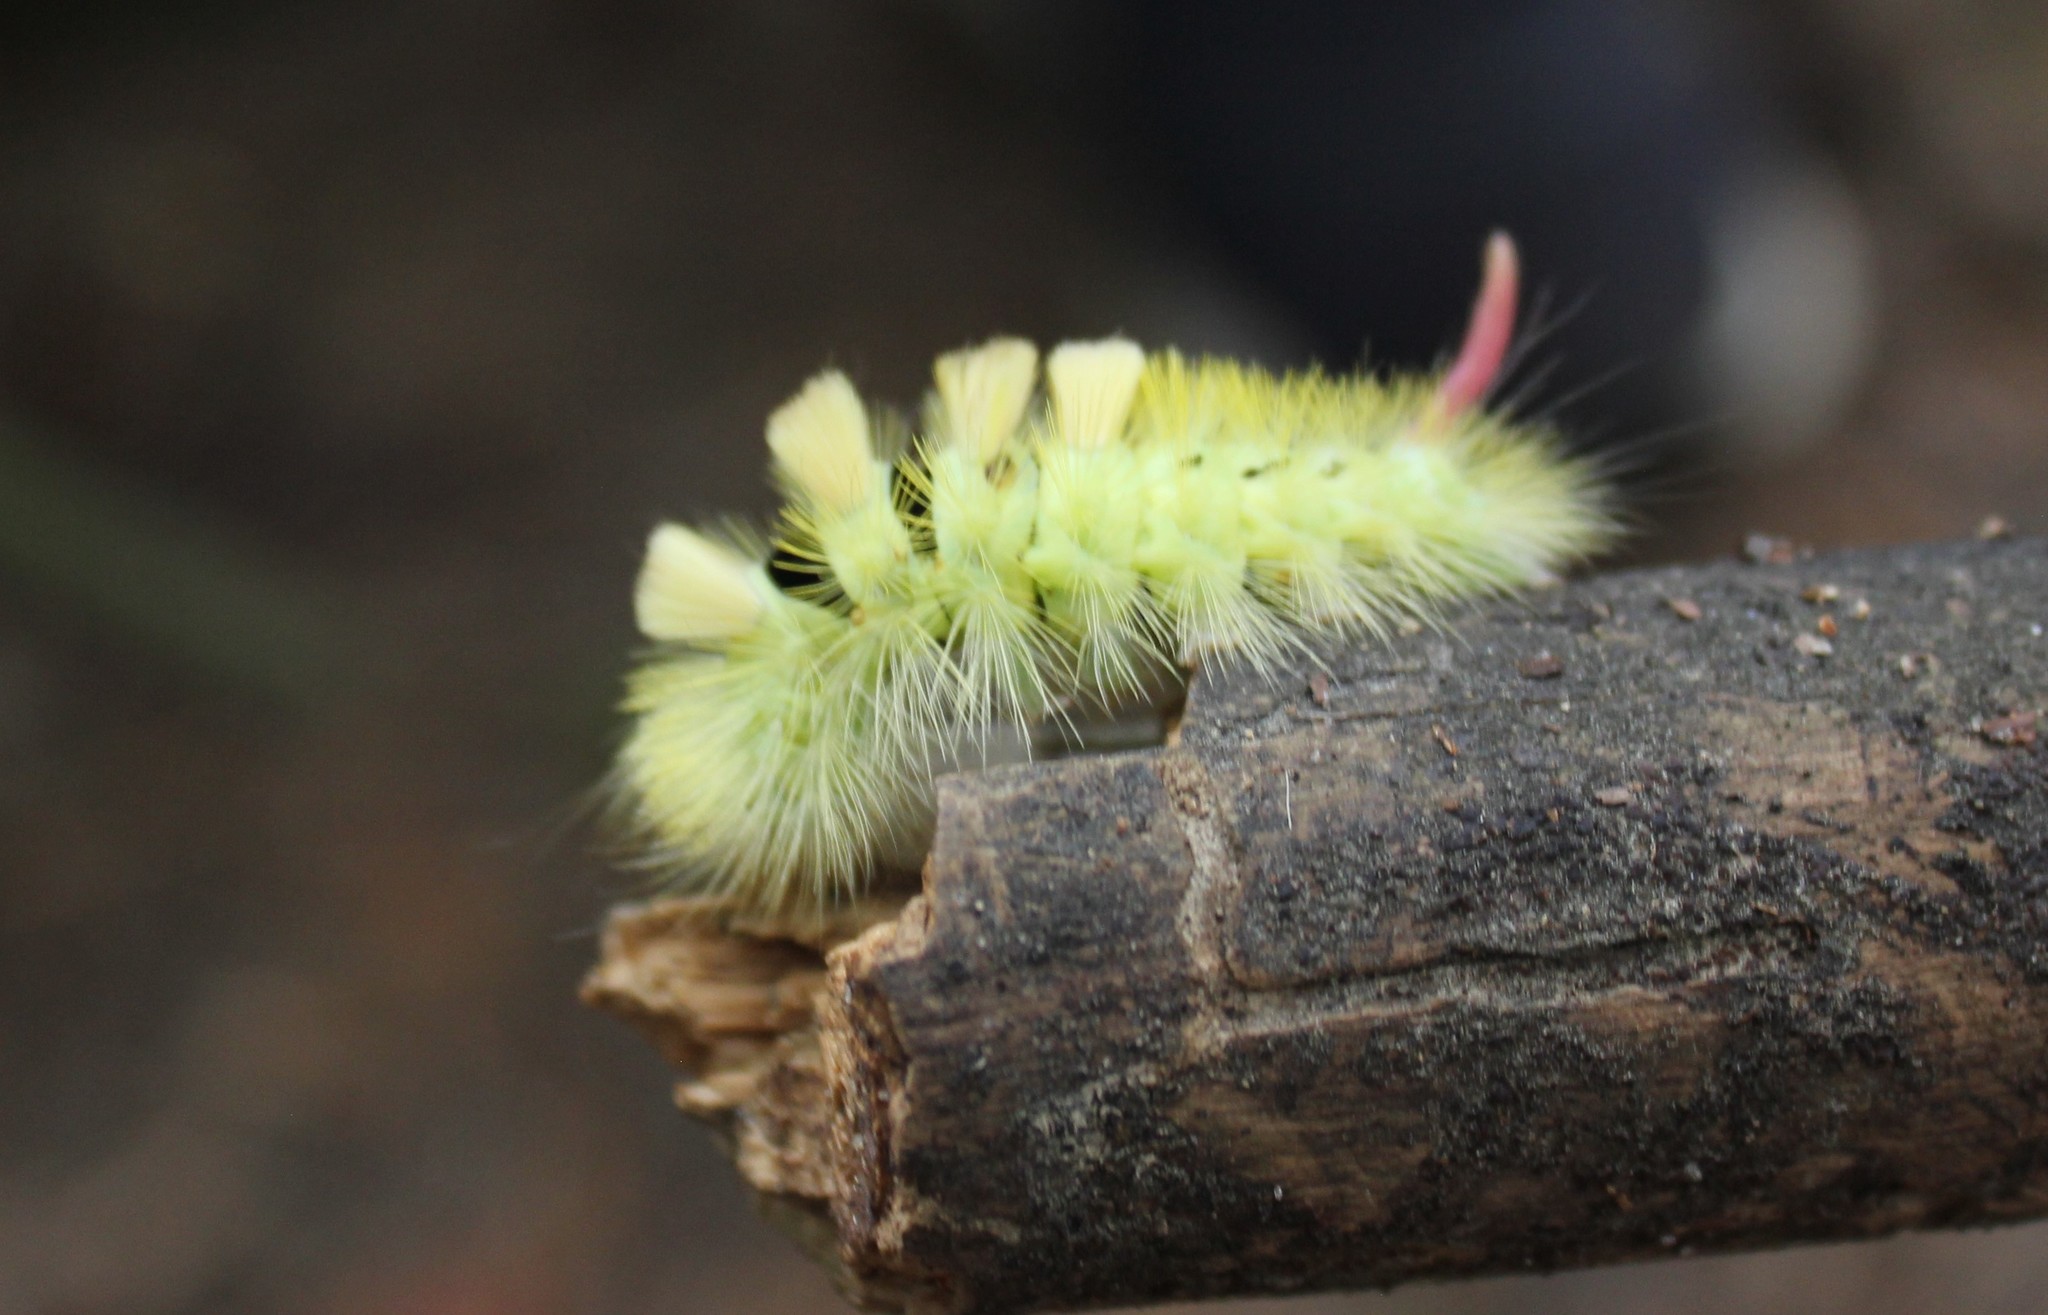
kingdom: Animalia
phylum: Arthropoda
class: Insecta
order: Lepidoptera
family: Erebidae
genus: Calliteara
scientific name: Calliteara pudibunda
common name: Pale tussock
